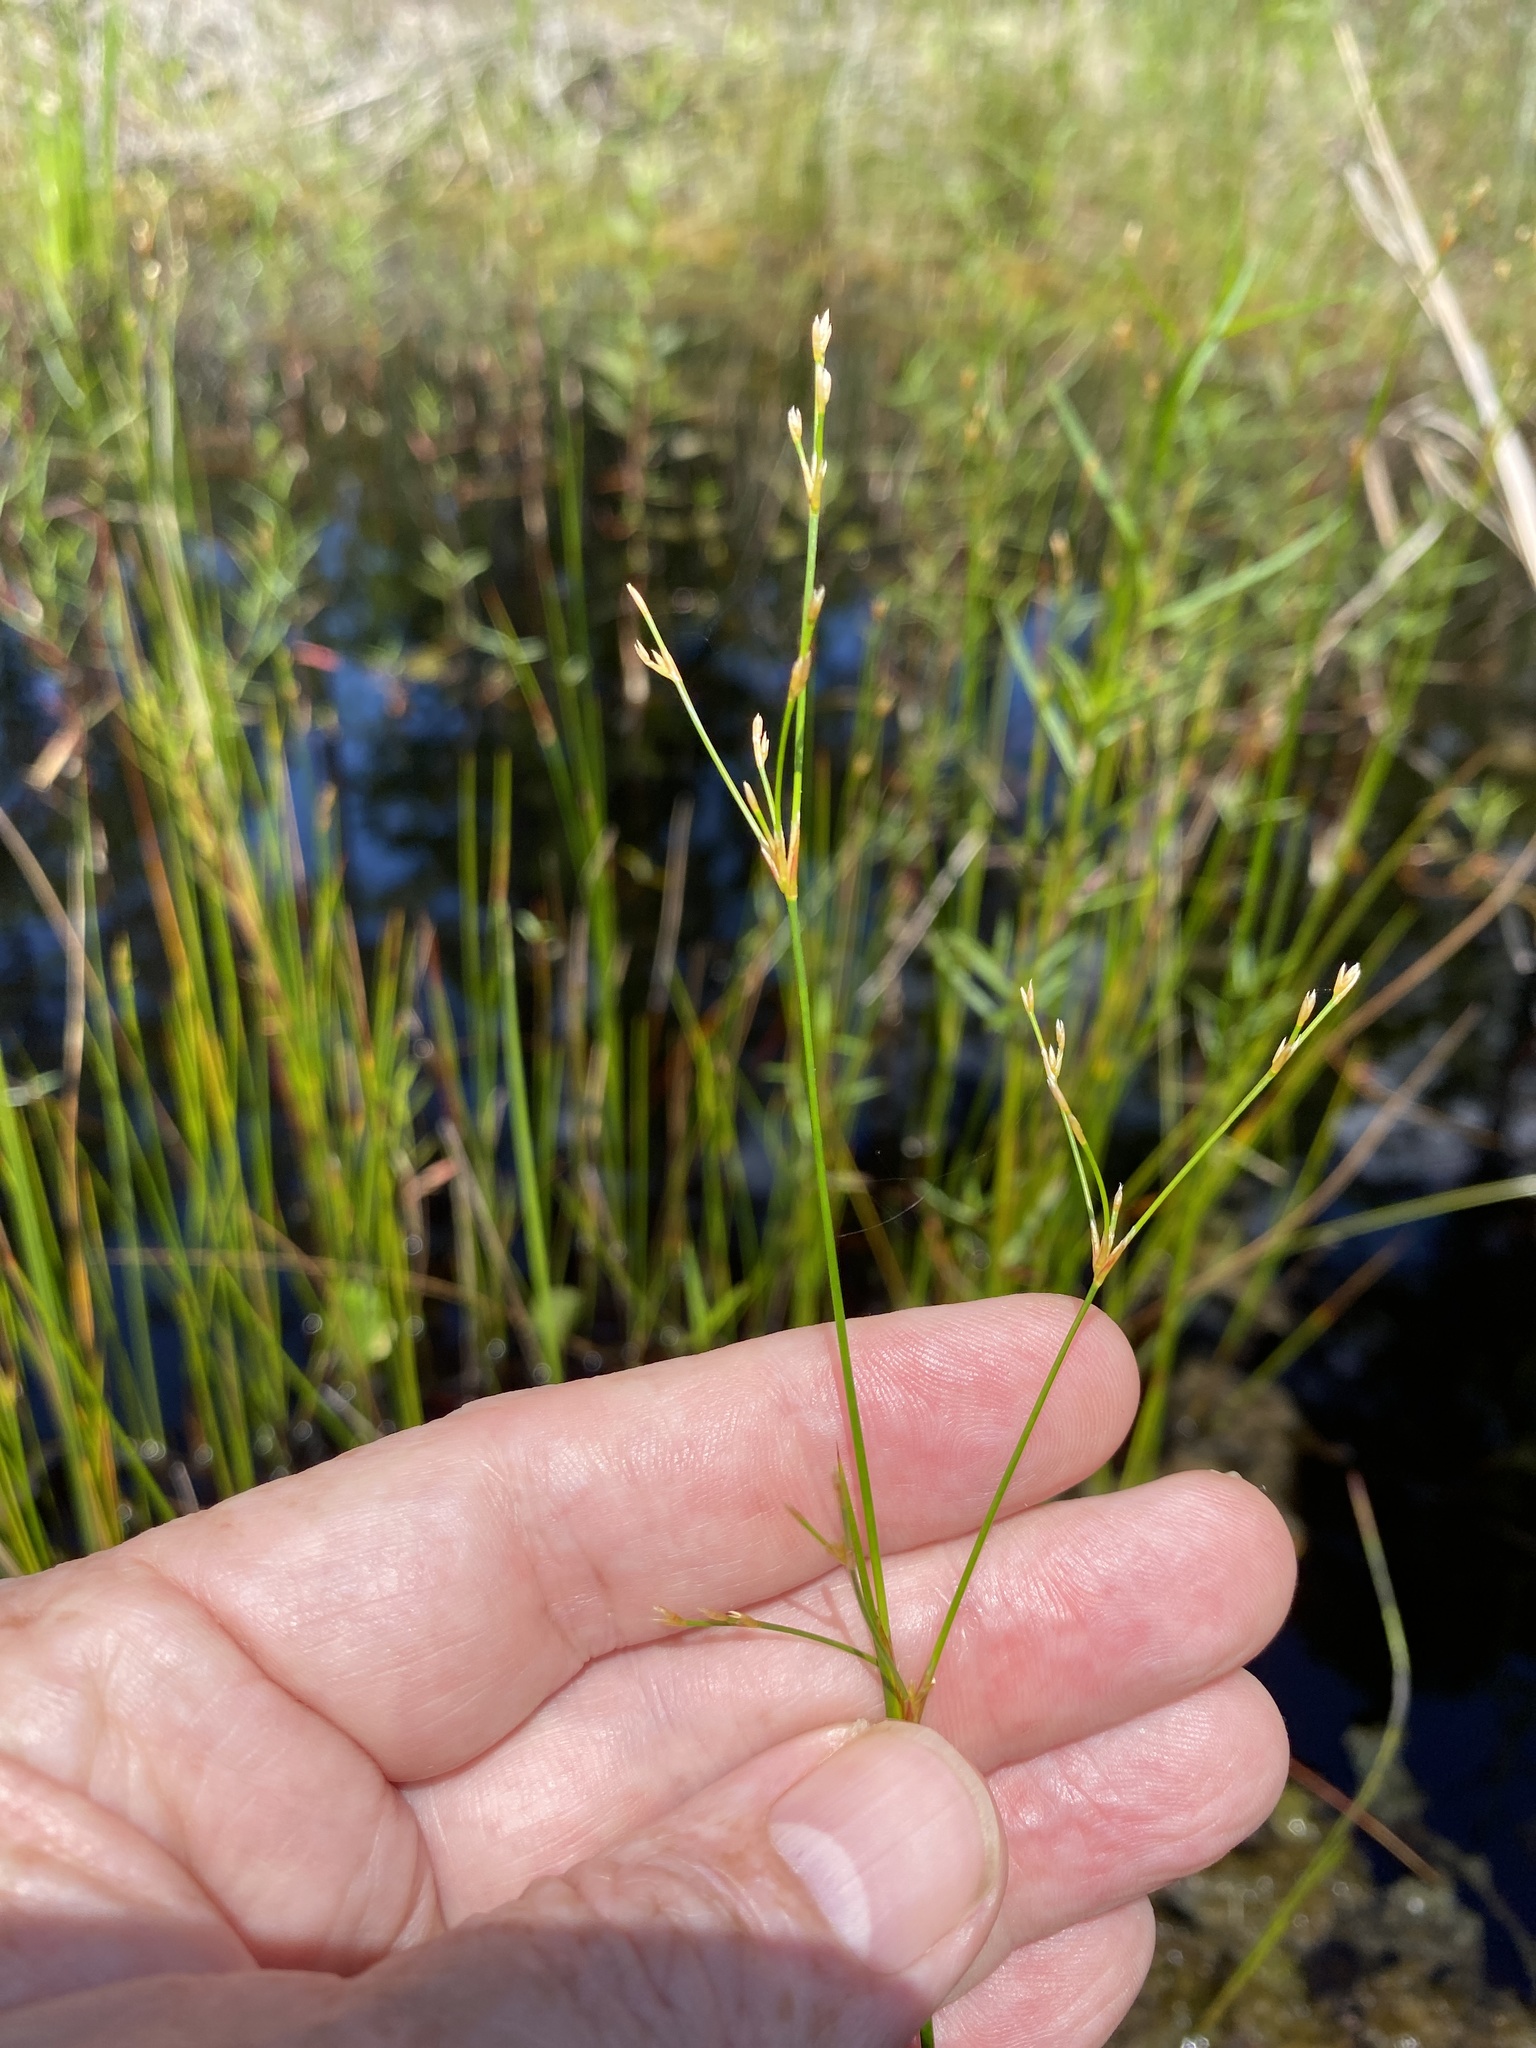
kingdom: Plantae
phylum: Tracheophyta
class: Liliopsida
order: Poales
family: Juncaceae
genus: Juncus
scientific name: Juncus pelocarpus
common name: Brown-fruited rush
